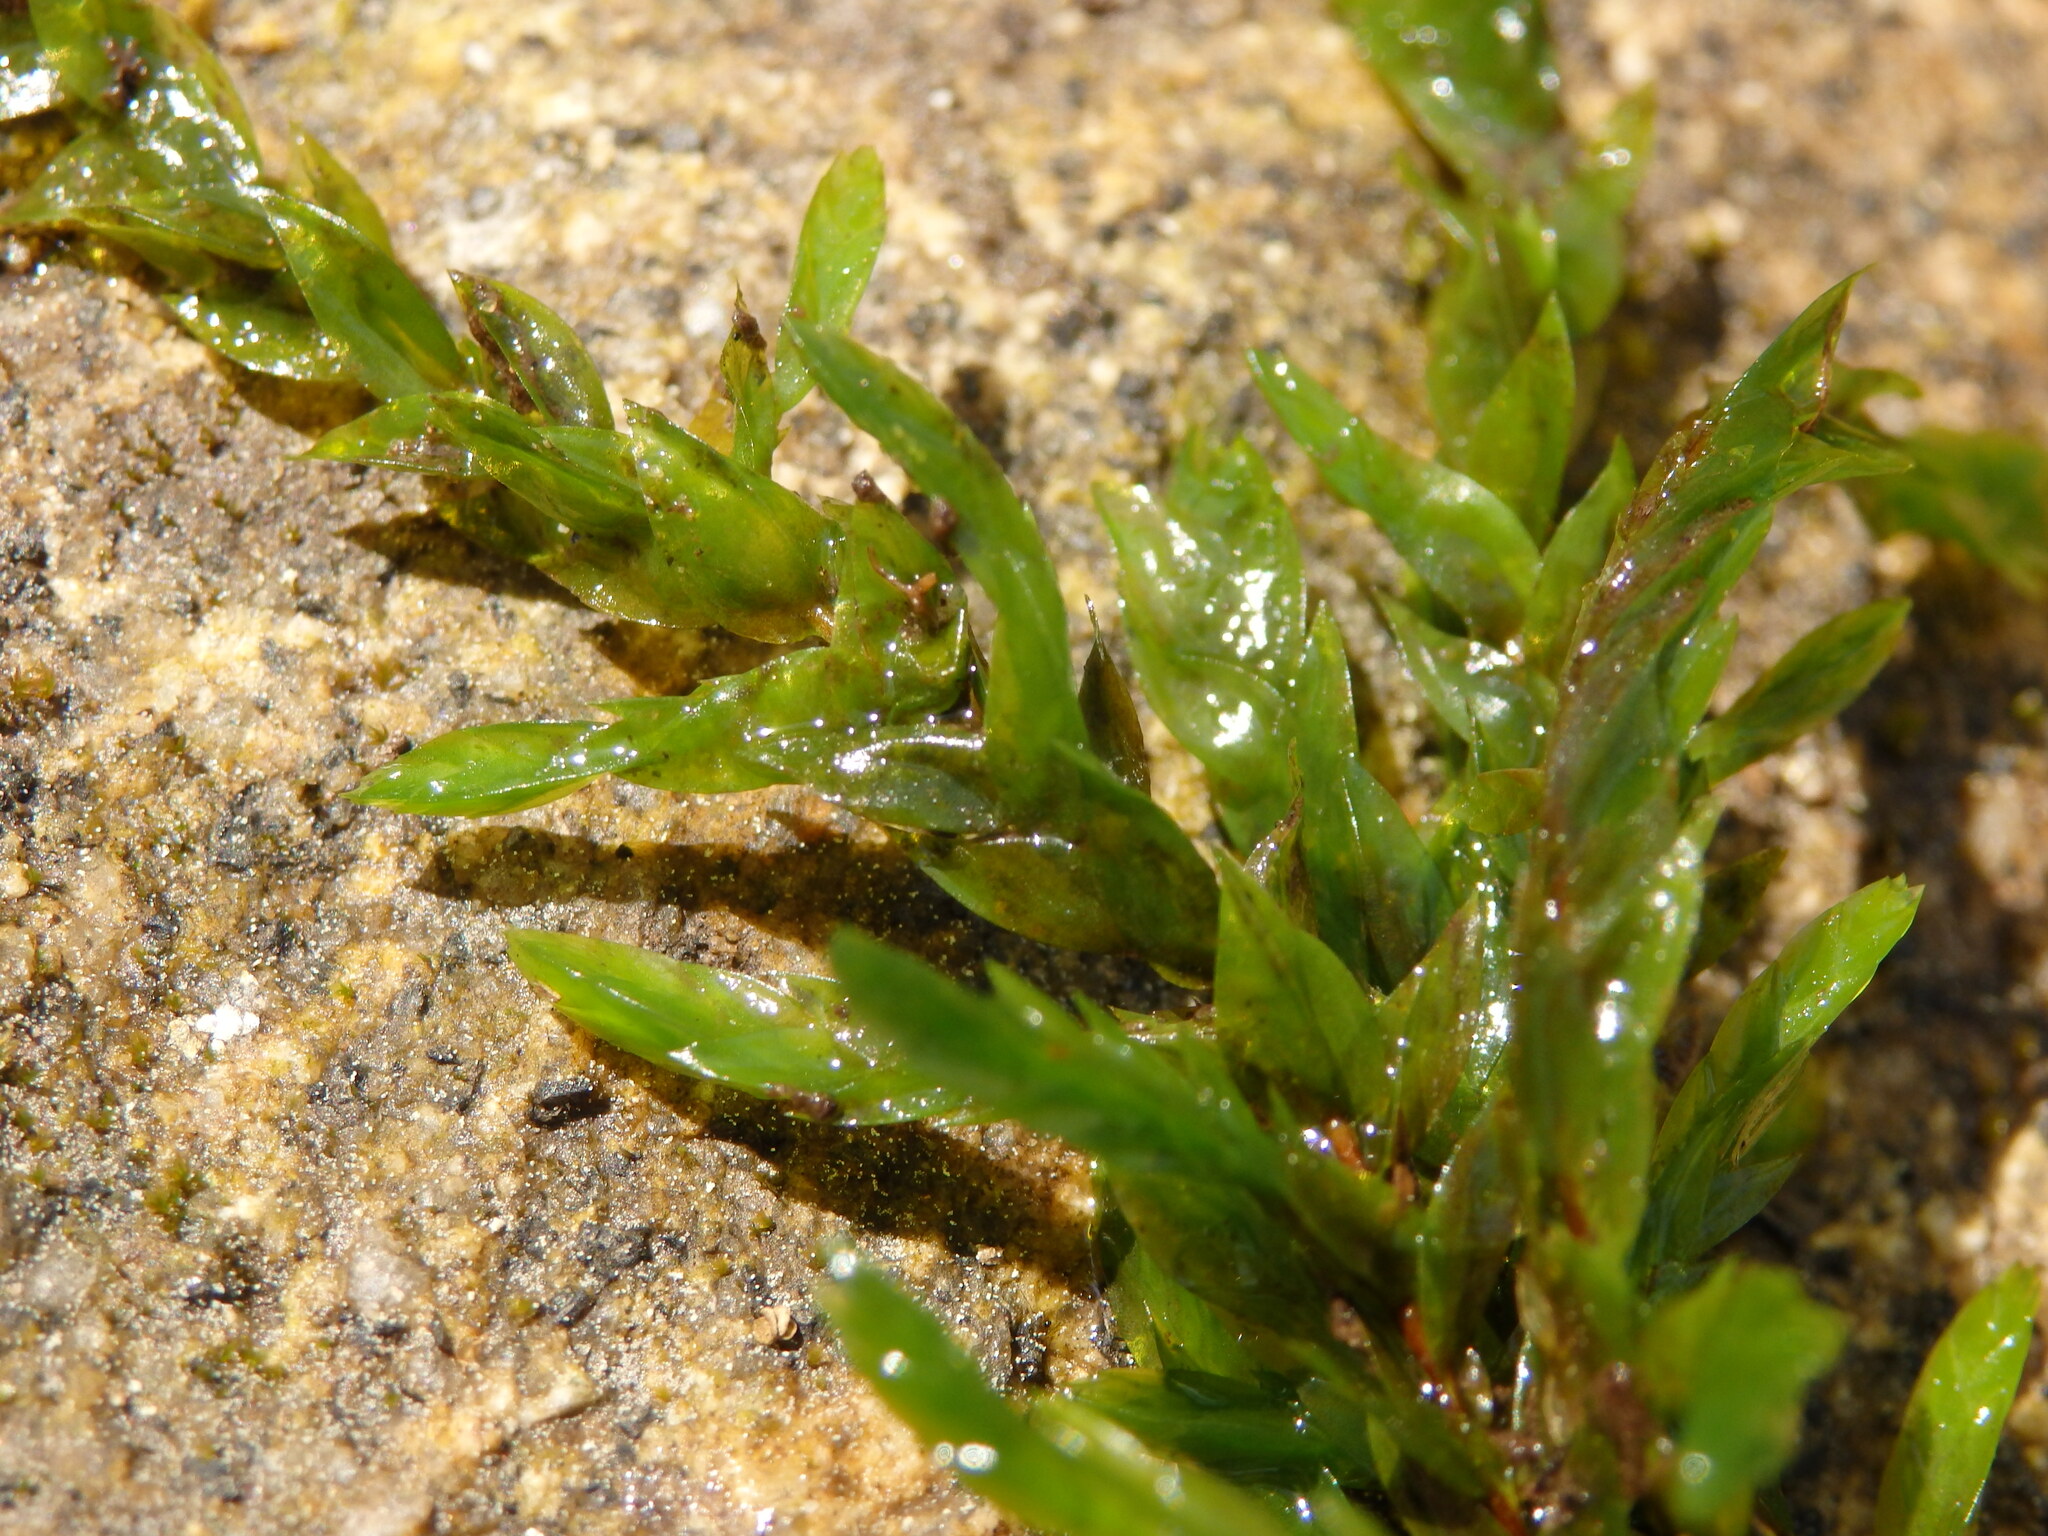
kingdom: Plantae
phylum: Bryophyta
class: Bryopsida
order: Hypnales
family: Fontinalaceae
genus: Fontinalis
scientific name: Fontinalis antipyretica
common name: Greater water-moss
